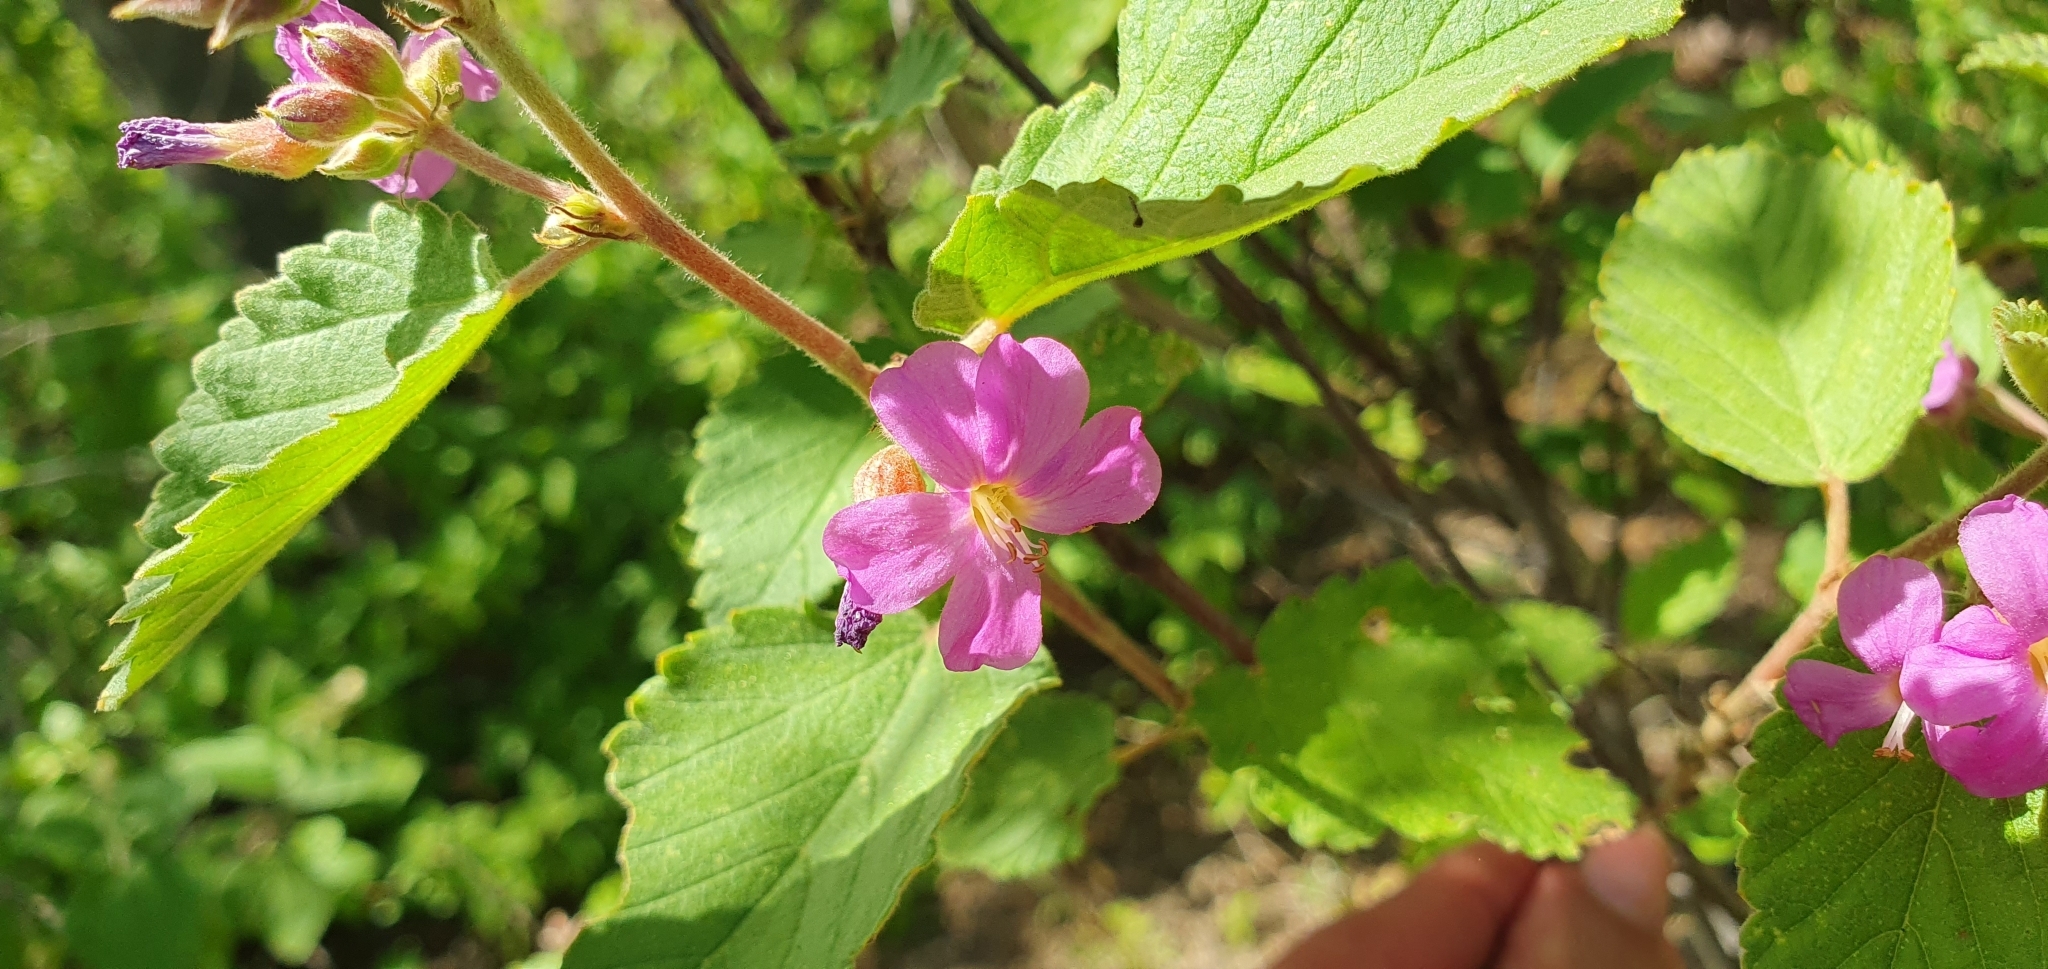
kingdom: Plantae
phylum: Tracheophyta
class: Magnoliopsida
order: Malvales
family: Malvaceae
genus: Melochia
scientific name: Melochia tomentosa
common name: Black torch
